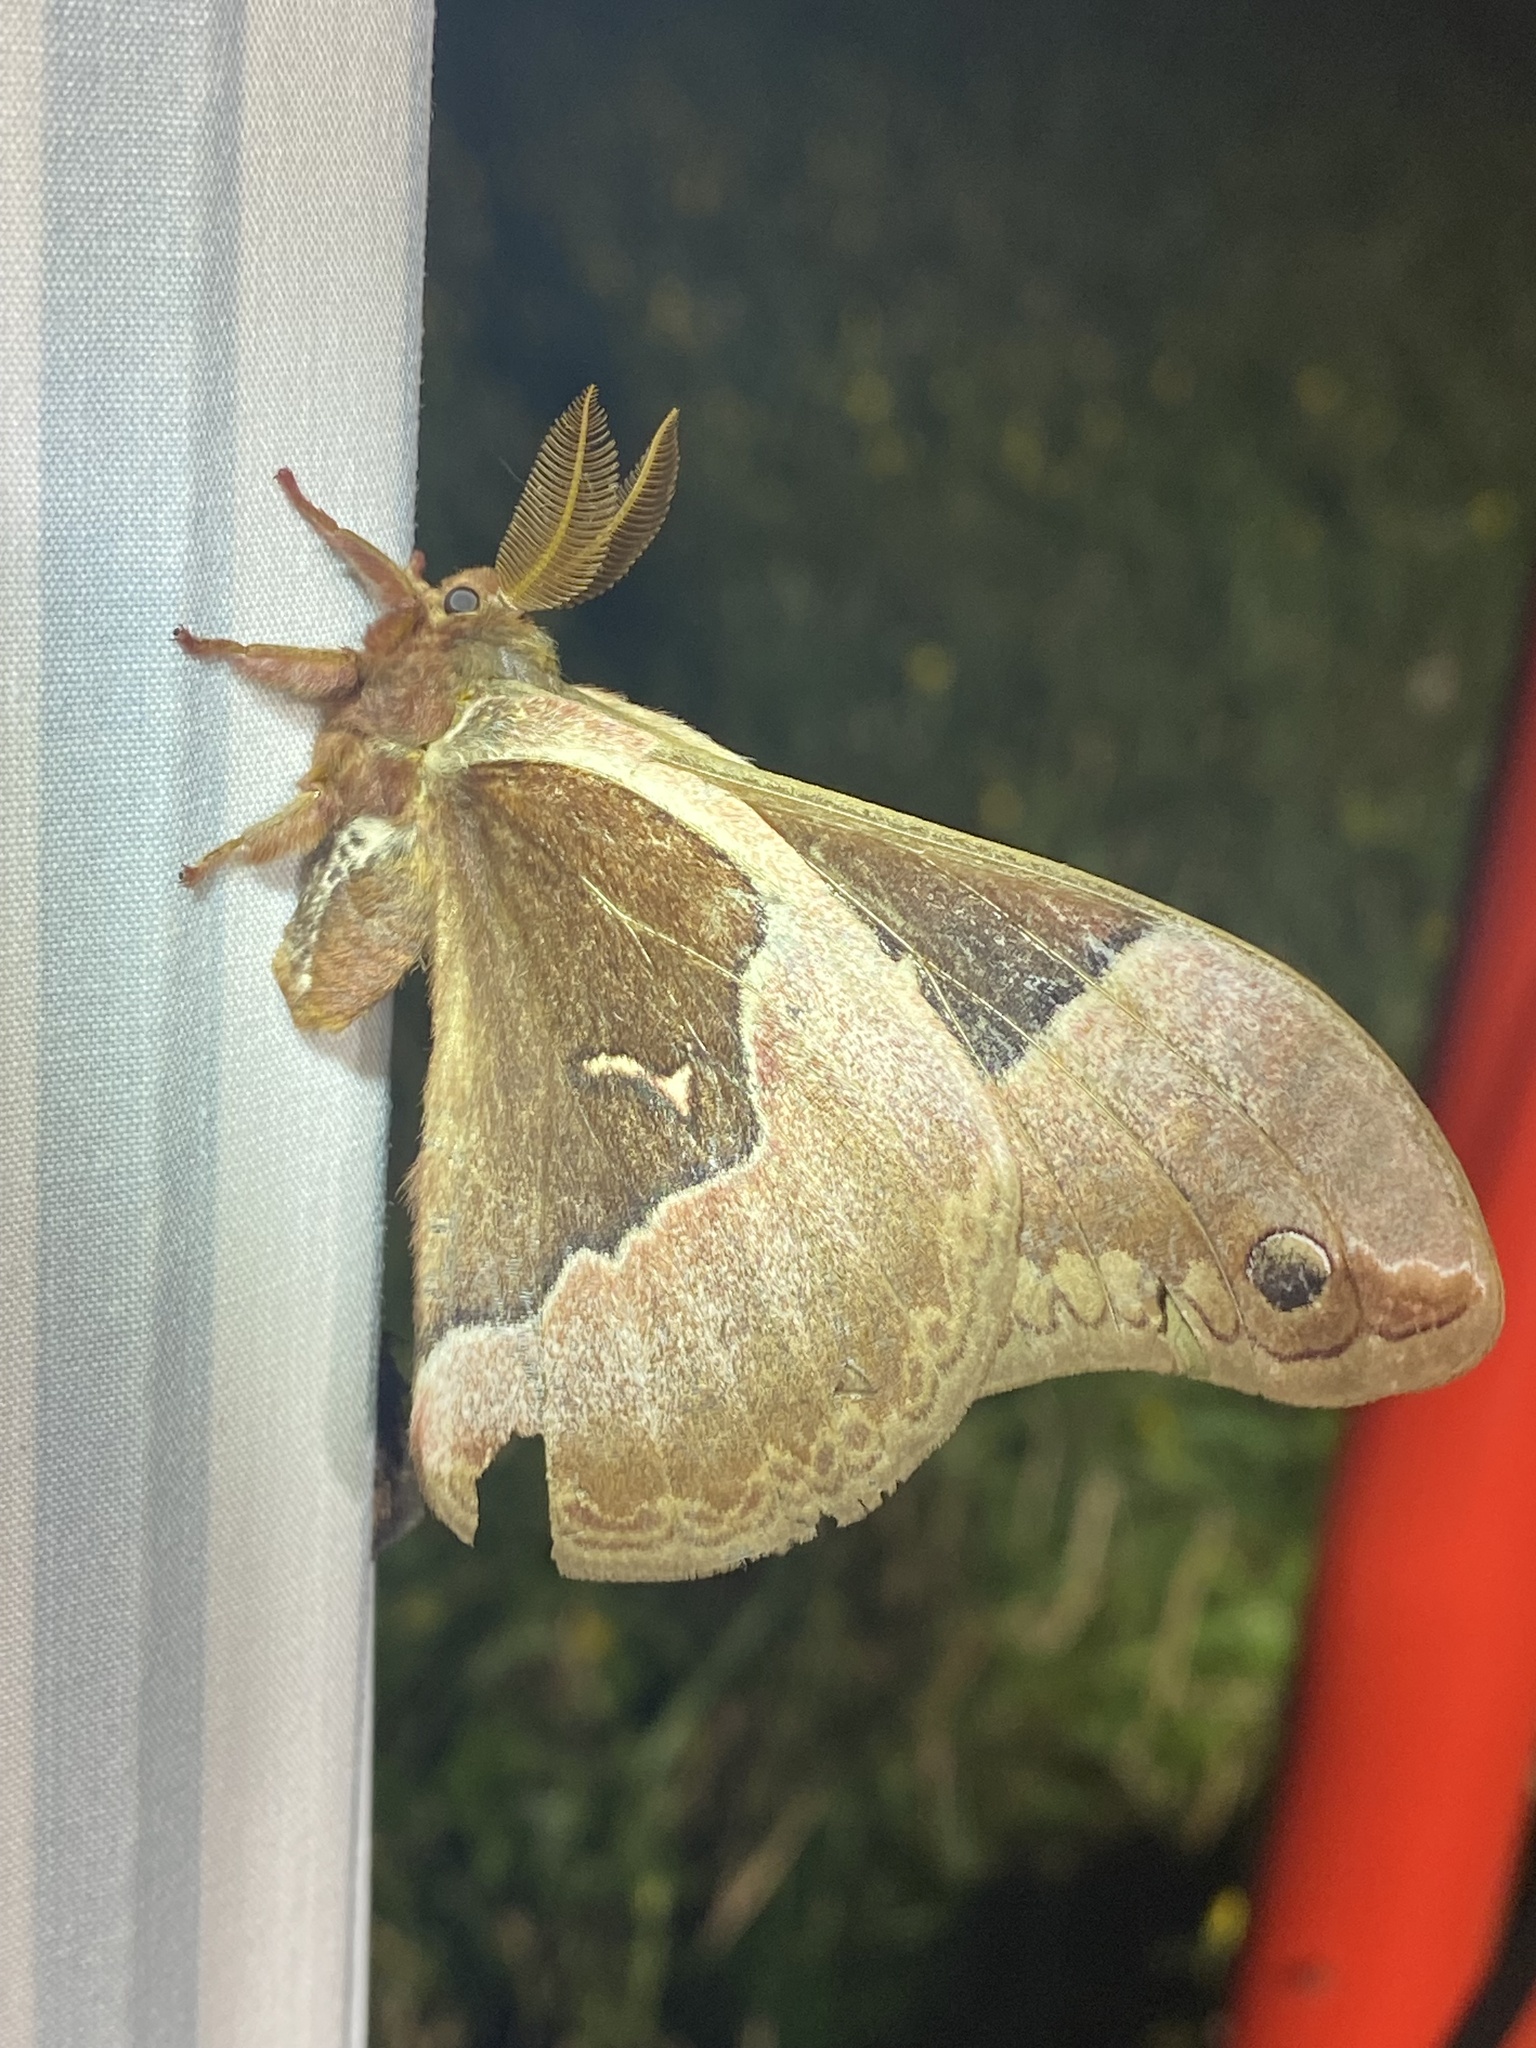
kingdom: Animalia
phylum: Arthropoda
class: Insecta
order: Lepidoptera
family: Saturniidae
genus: Callosamia
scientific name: Callosamia angulifera
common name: Tulip tree silkmoth
